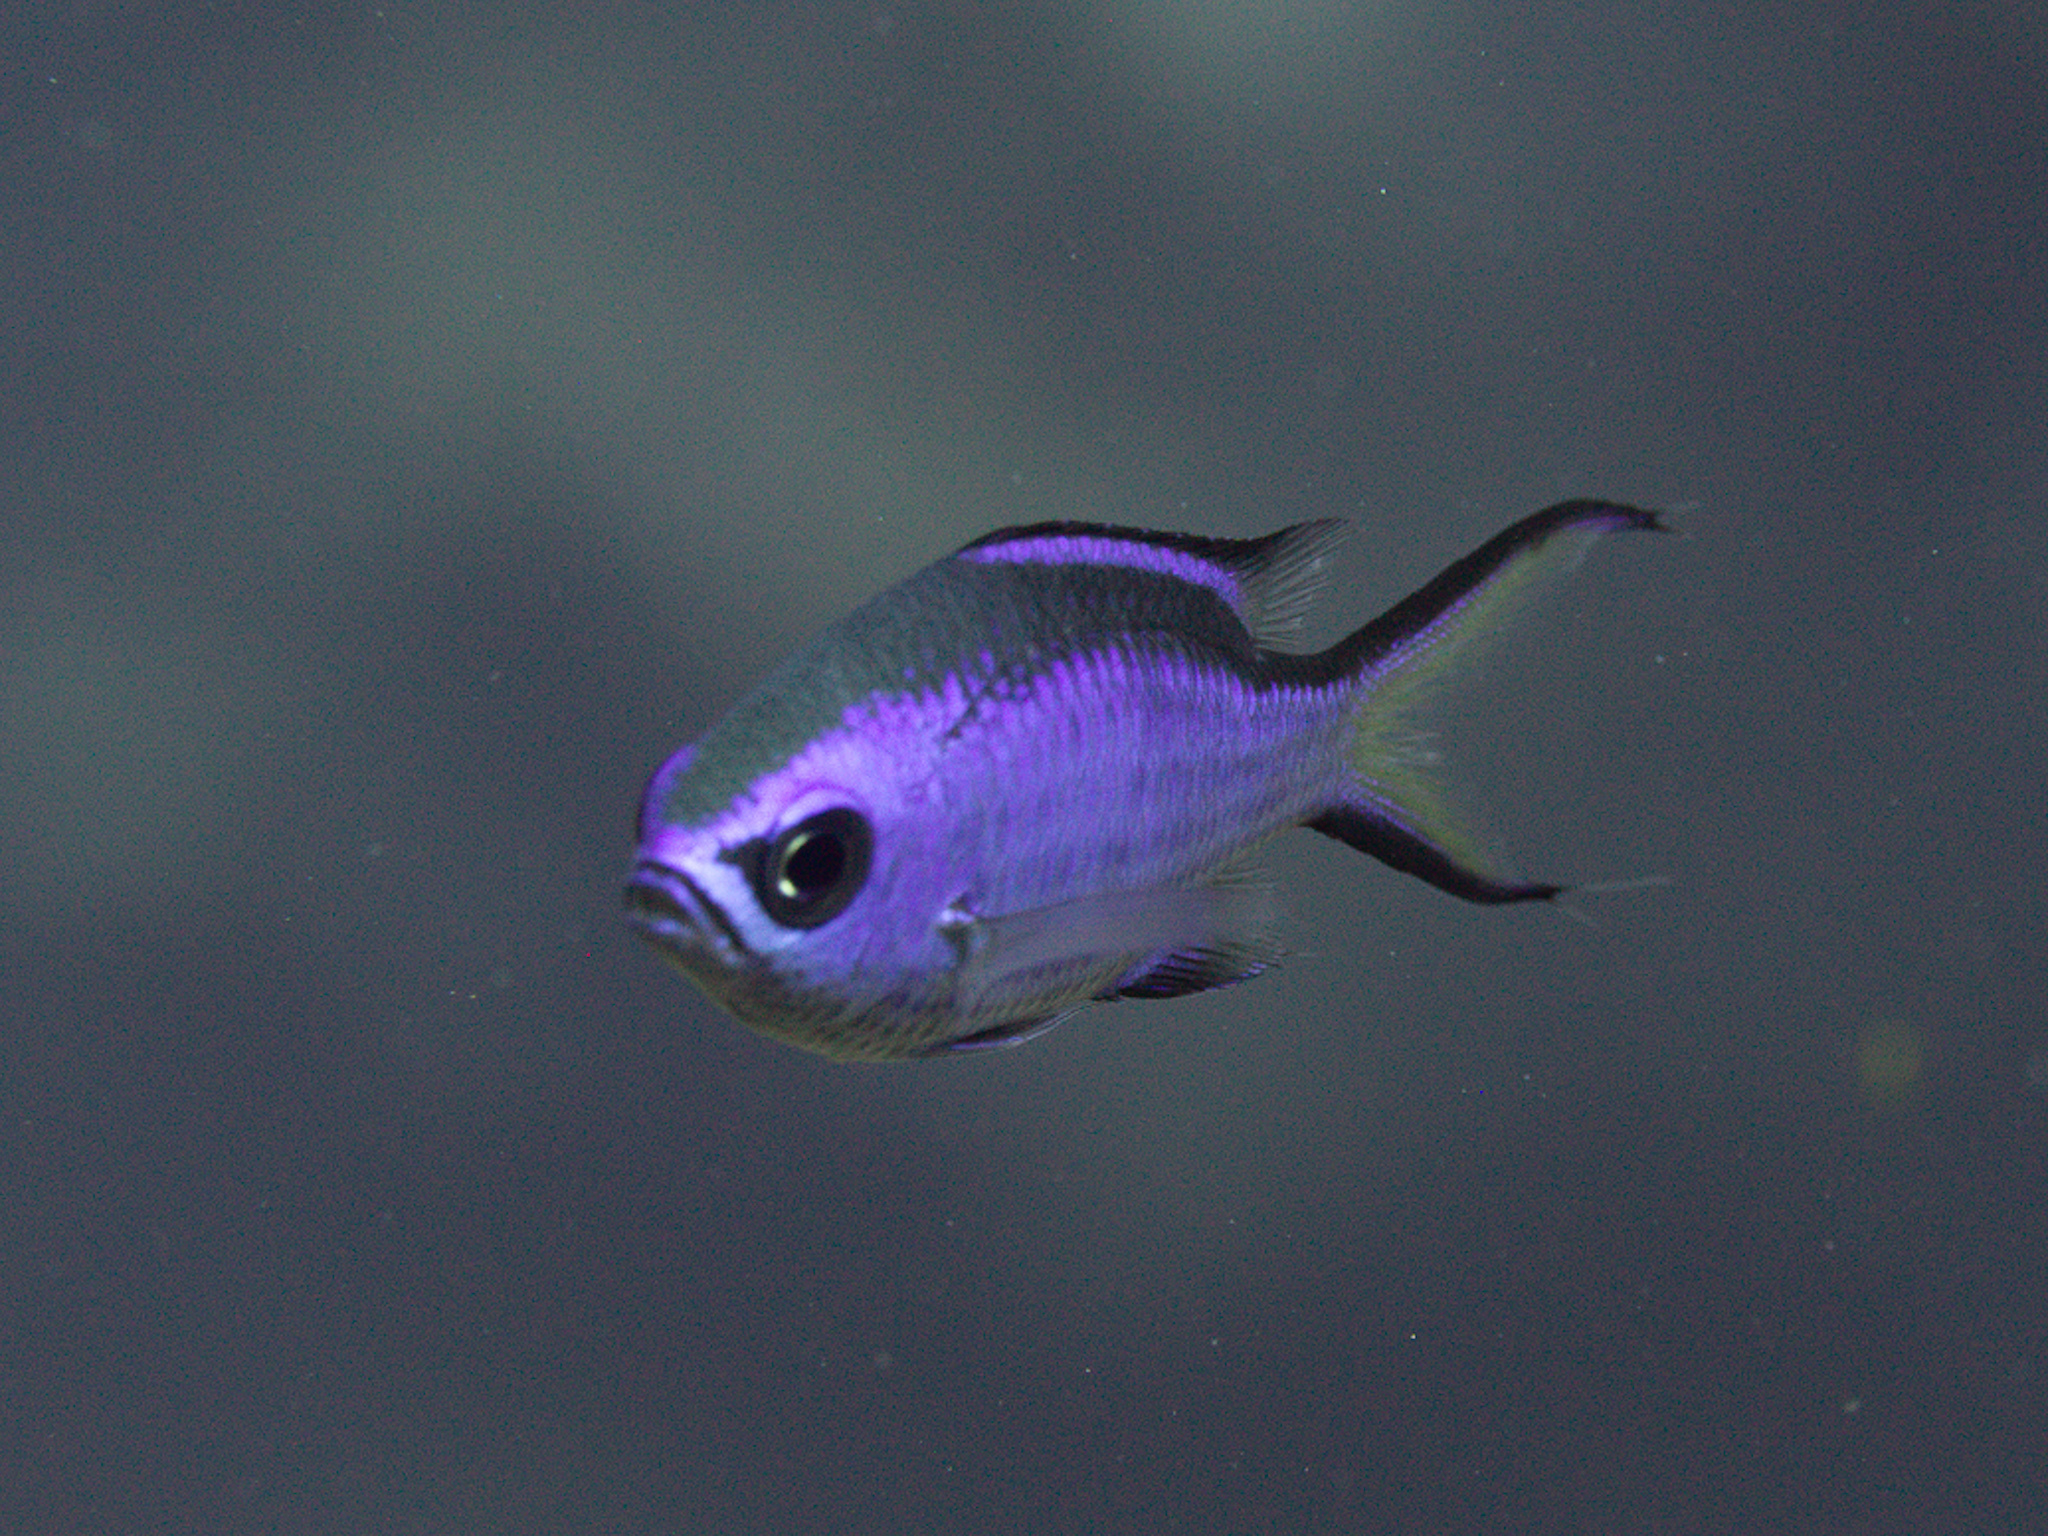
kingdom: Animalia
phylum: Chordata
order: Perciformes
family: Pomacentridae
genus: Chromis
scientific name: Chromis cyanea
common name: Blue chromis
